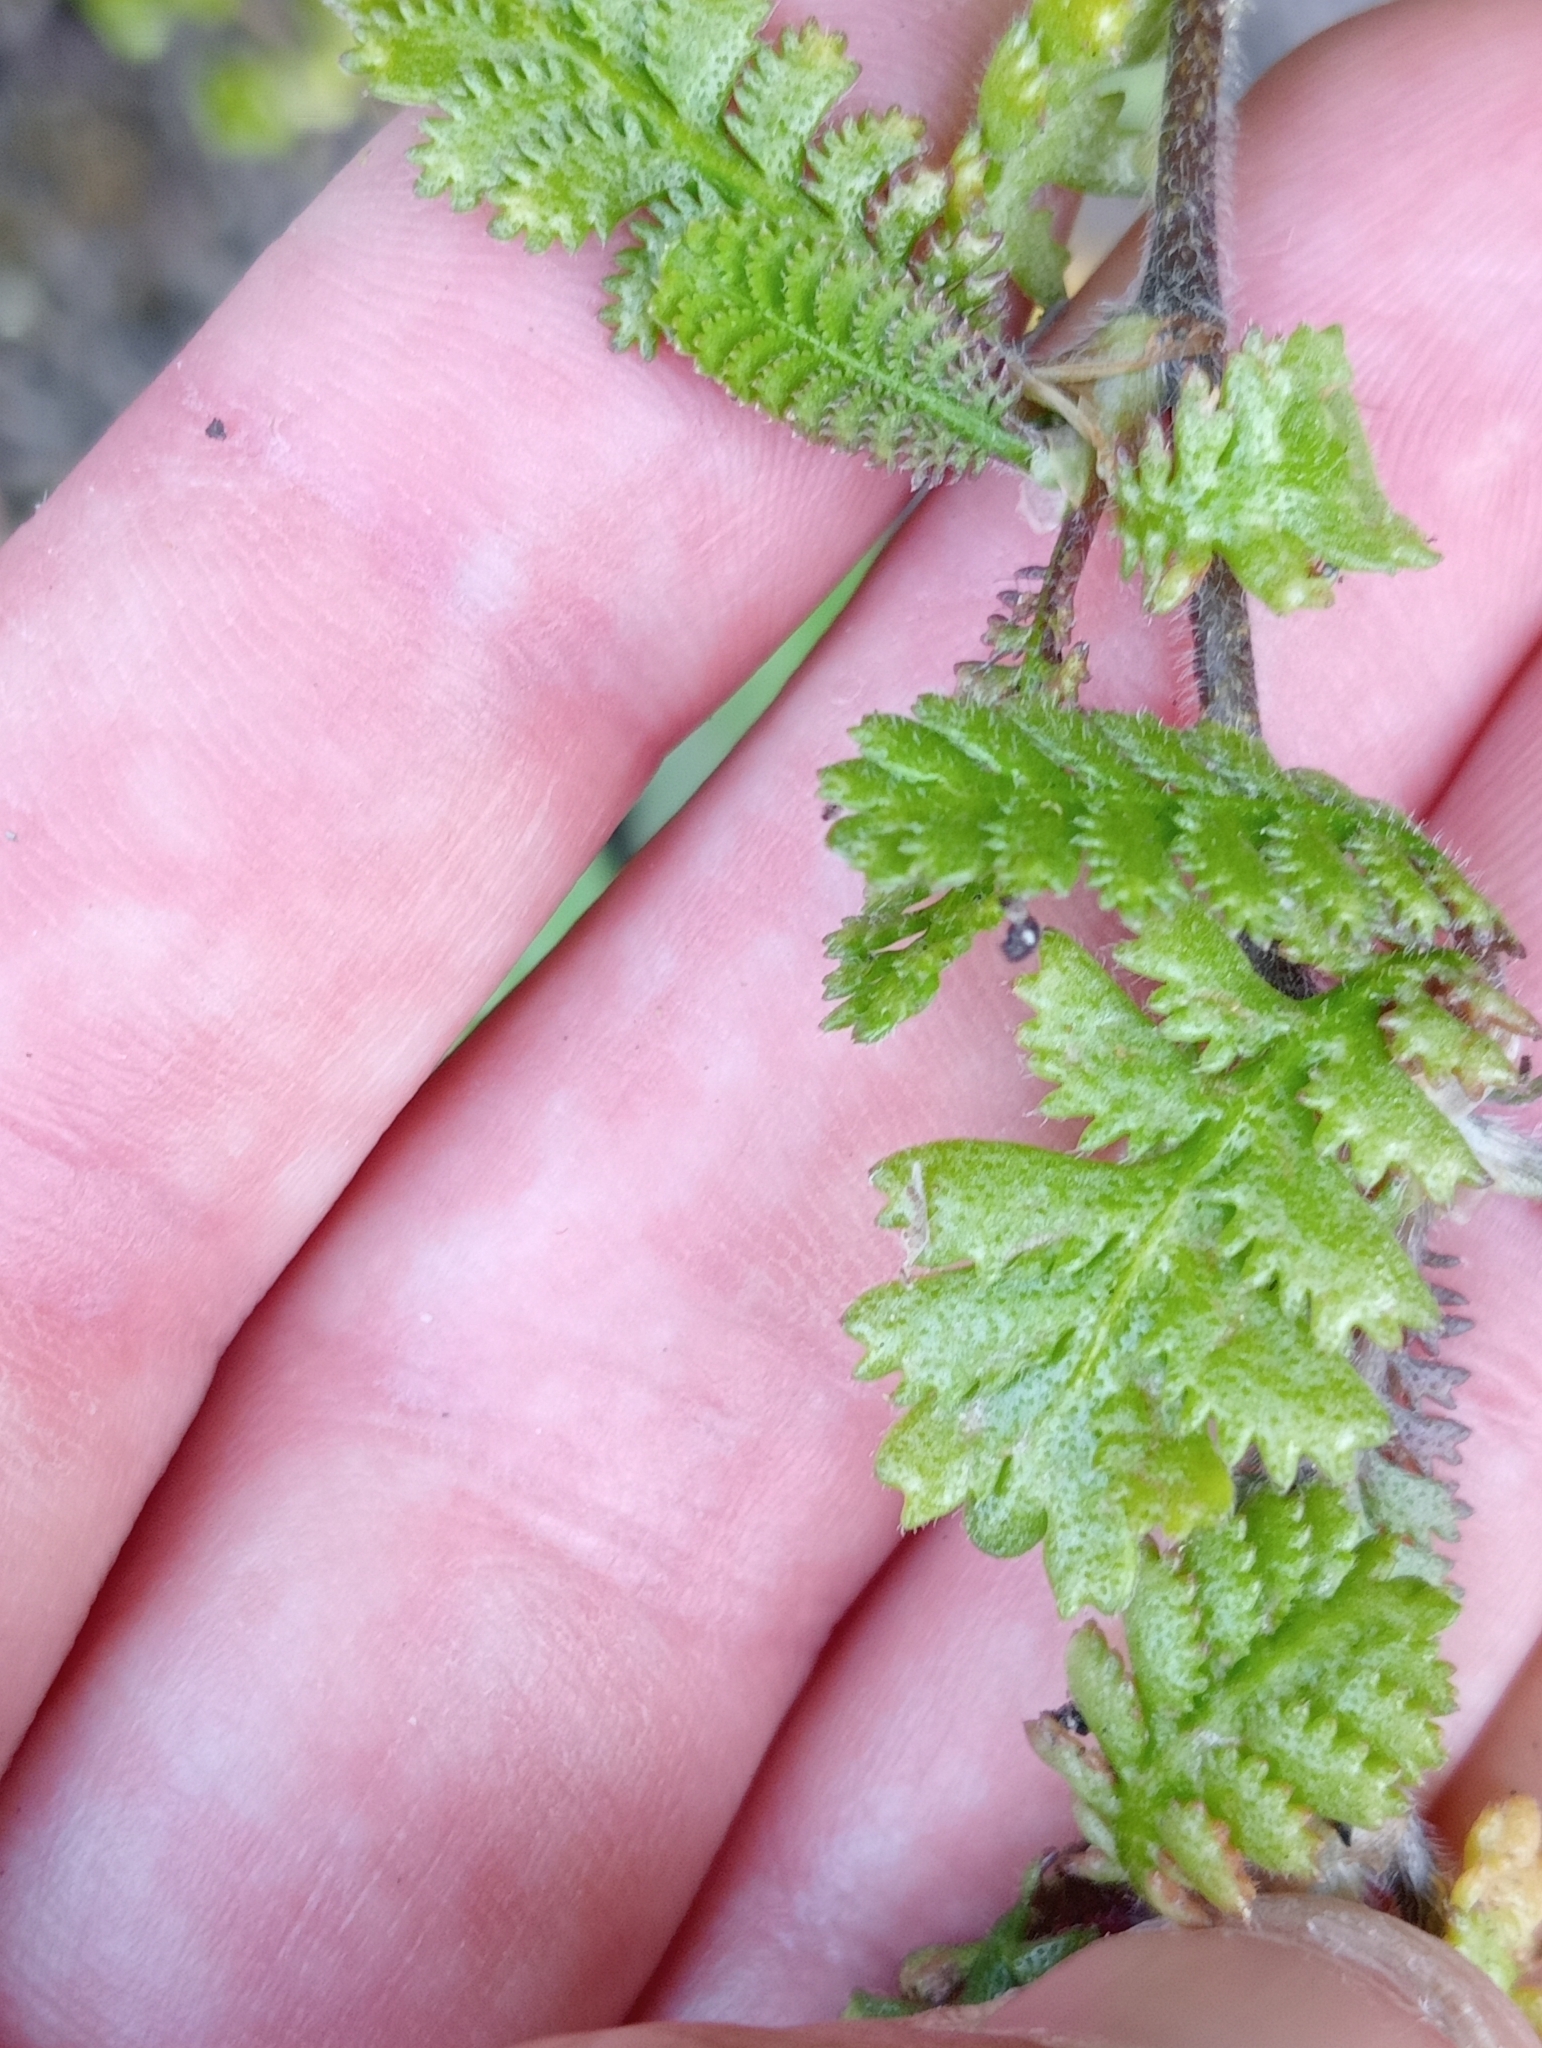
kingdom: Plantae
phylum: Tracheophyta
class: Magnoliopsida
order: Asterales
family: Asteraceae
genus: Leptinella
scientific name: Leptinella squalida
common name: New zealand brass-buttons
